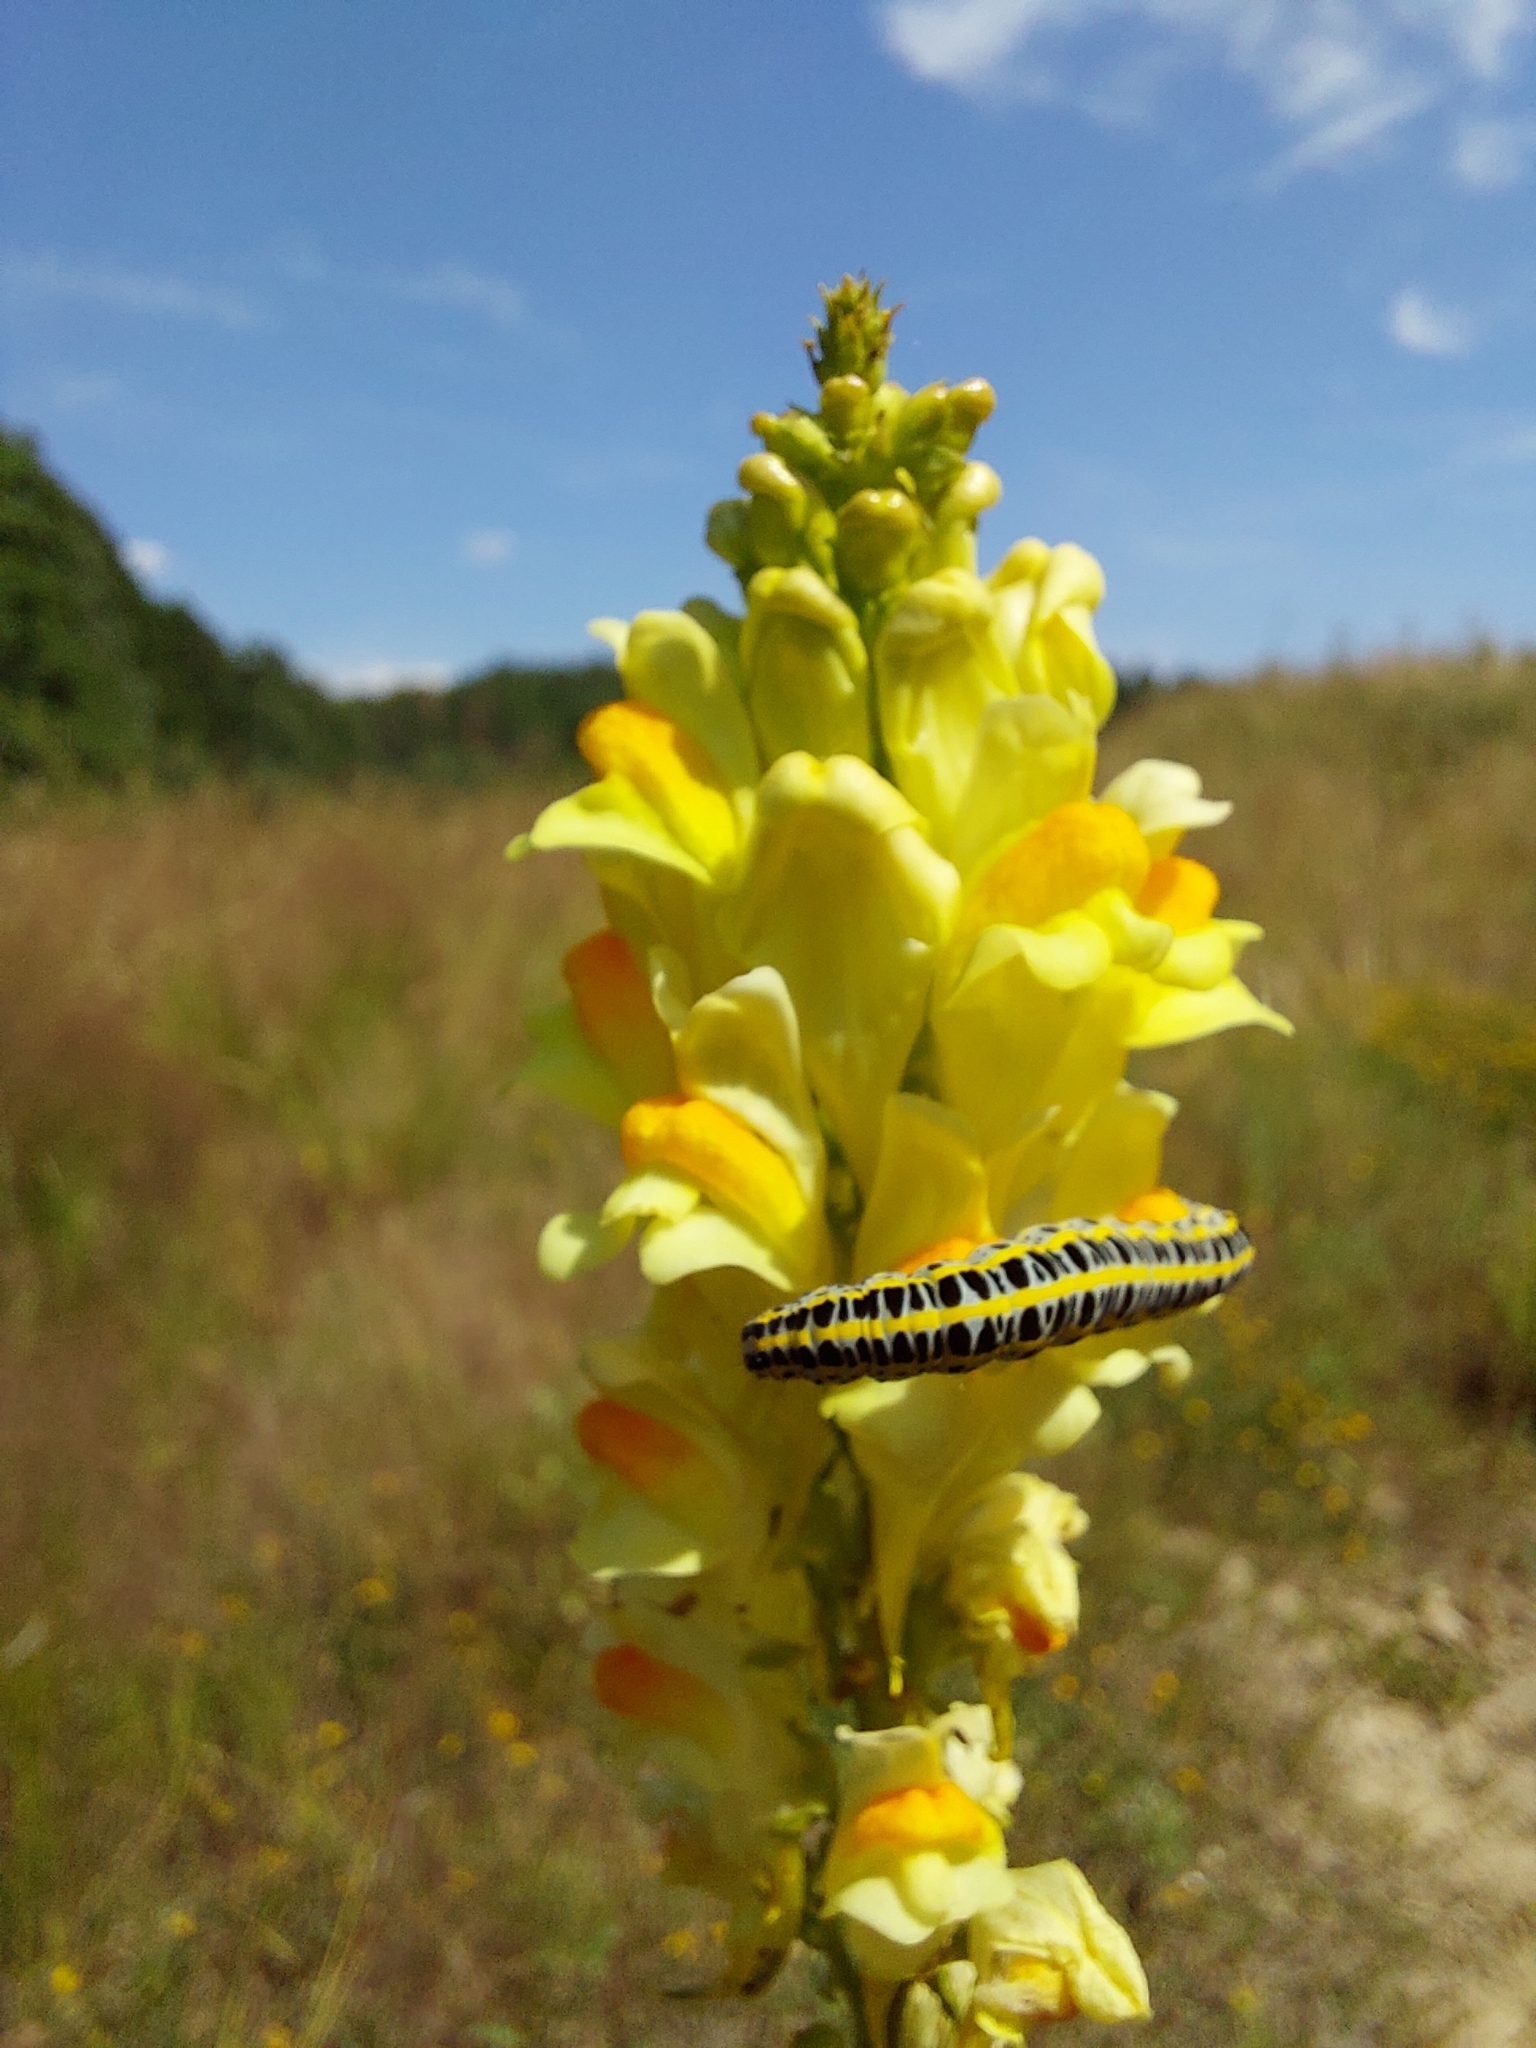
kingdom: Plantae
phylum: Tracheophyta
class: Magnoliopsida
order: Lamiales
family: Plantaginaceae
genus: Linaria
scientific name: Linaria vulgaris
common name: Butter and eggs
